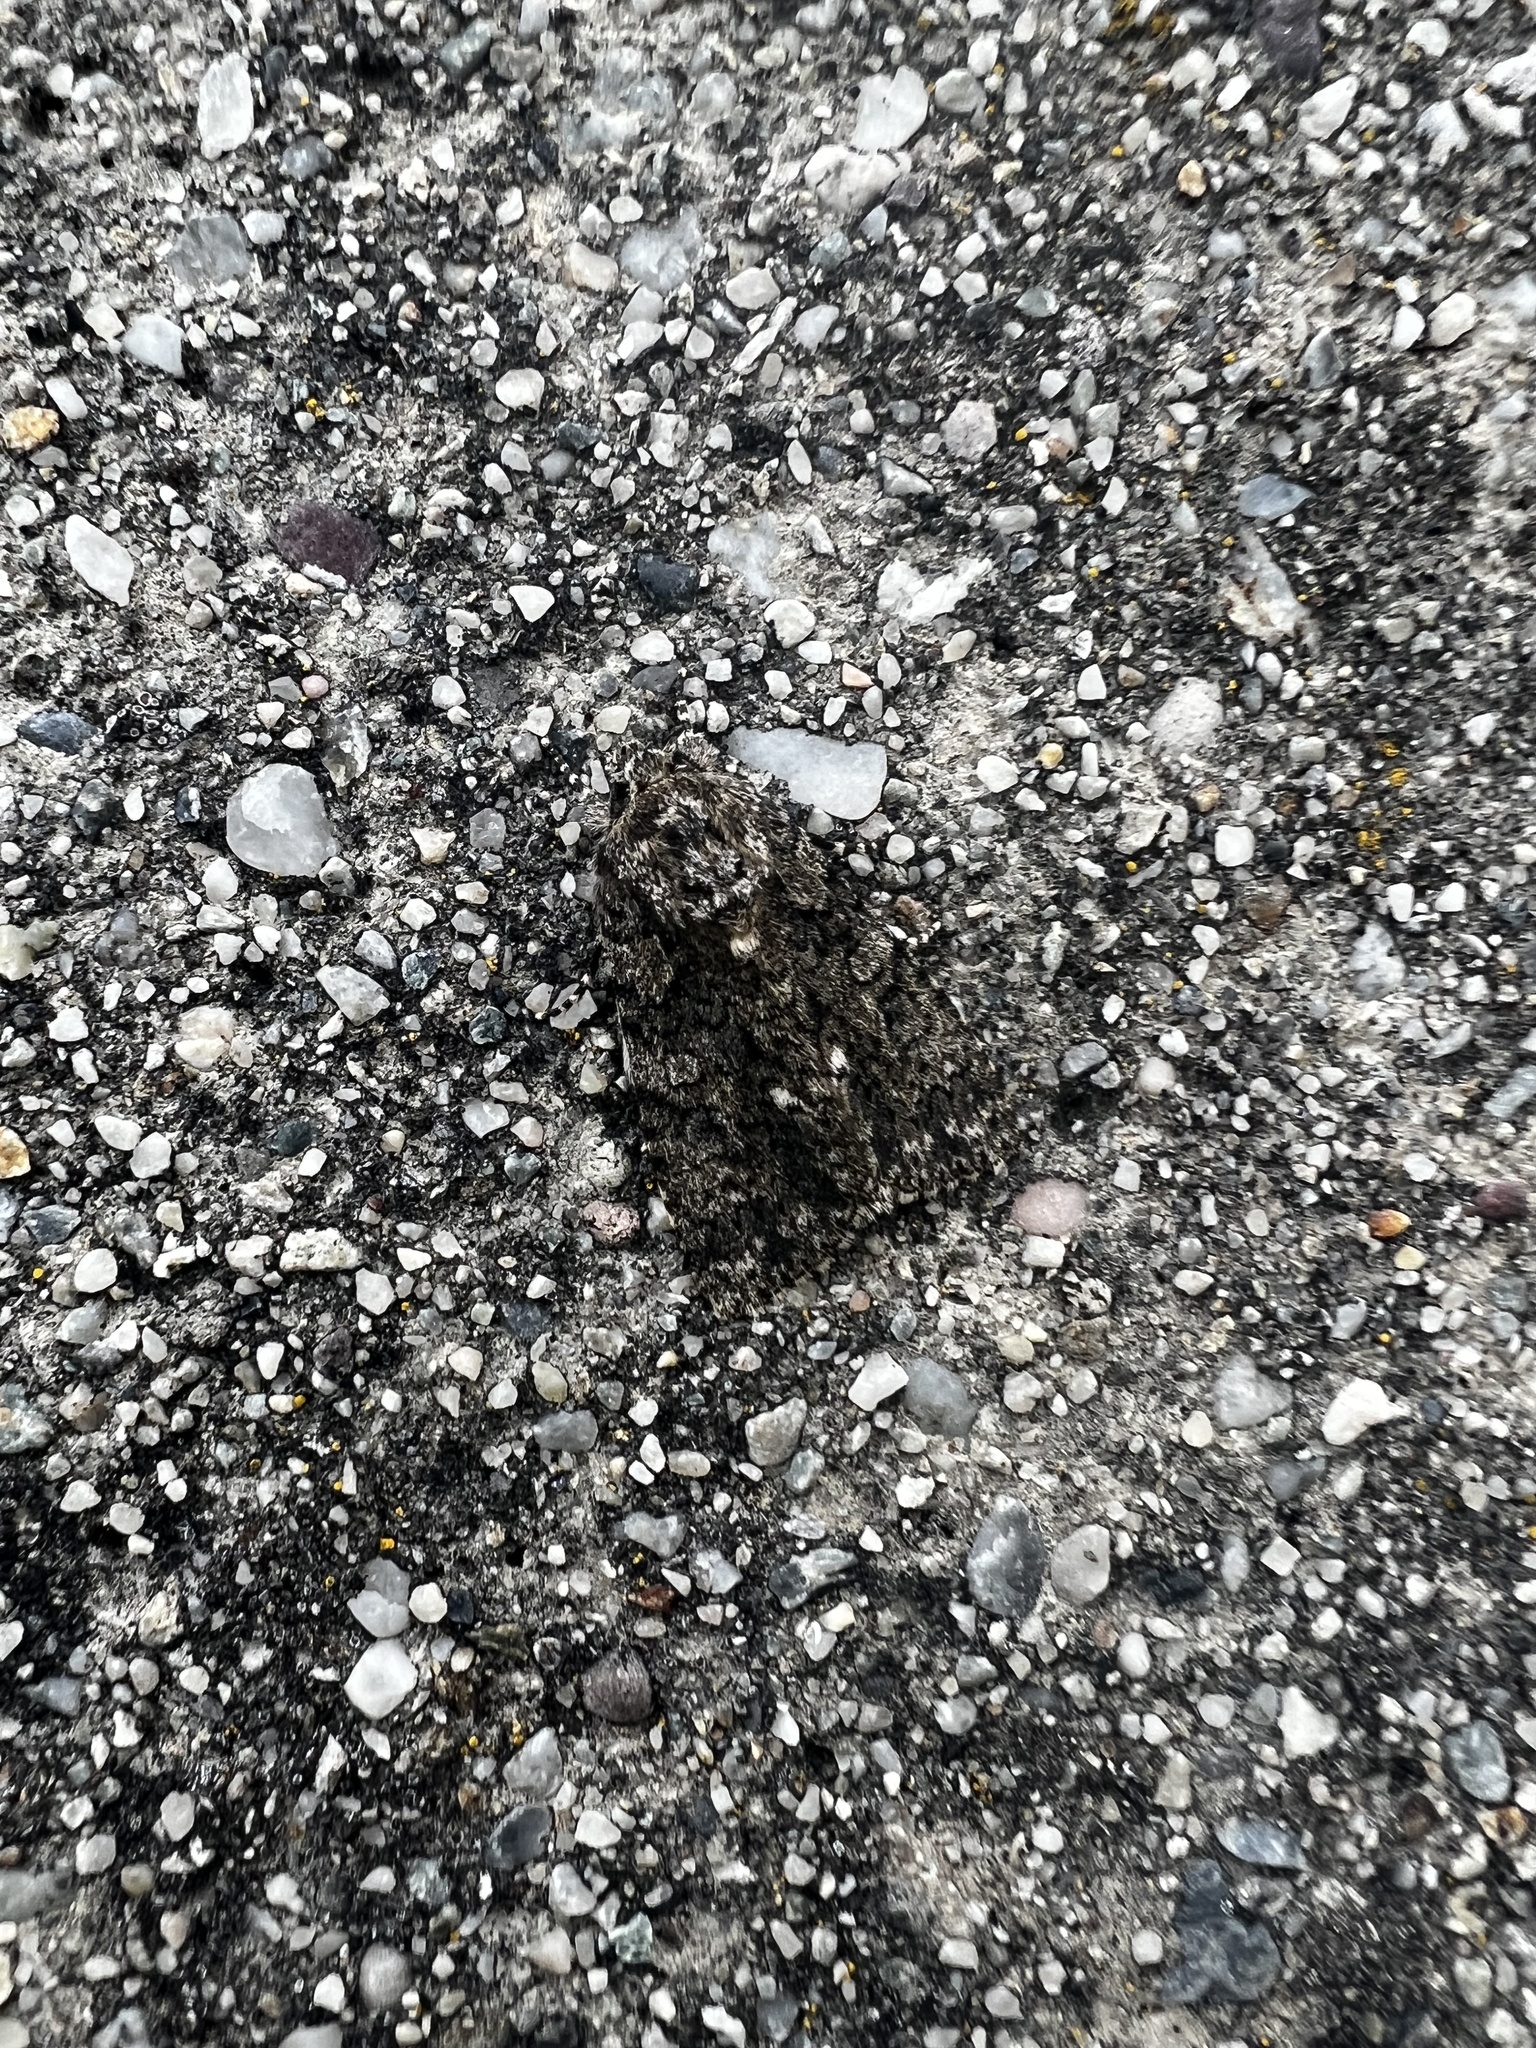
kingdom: Animalia
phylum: Arthropoda
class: Insecta
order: Lepidoptera
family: Noctuidae
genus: Acronicta
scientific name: Acronicta rumicis
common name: Knot grass
